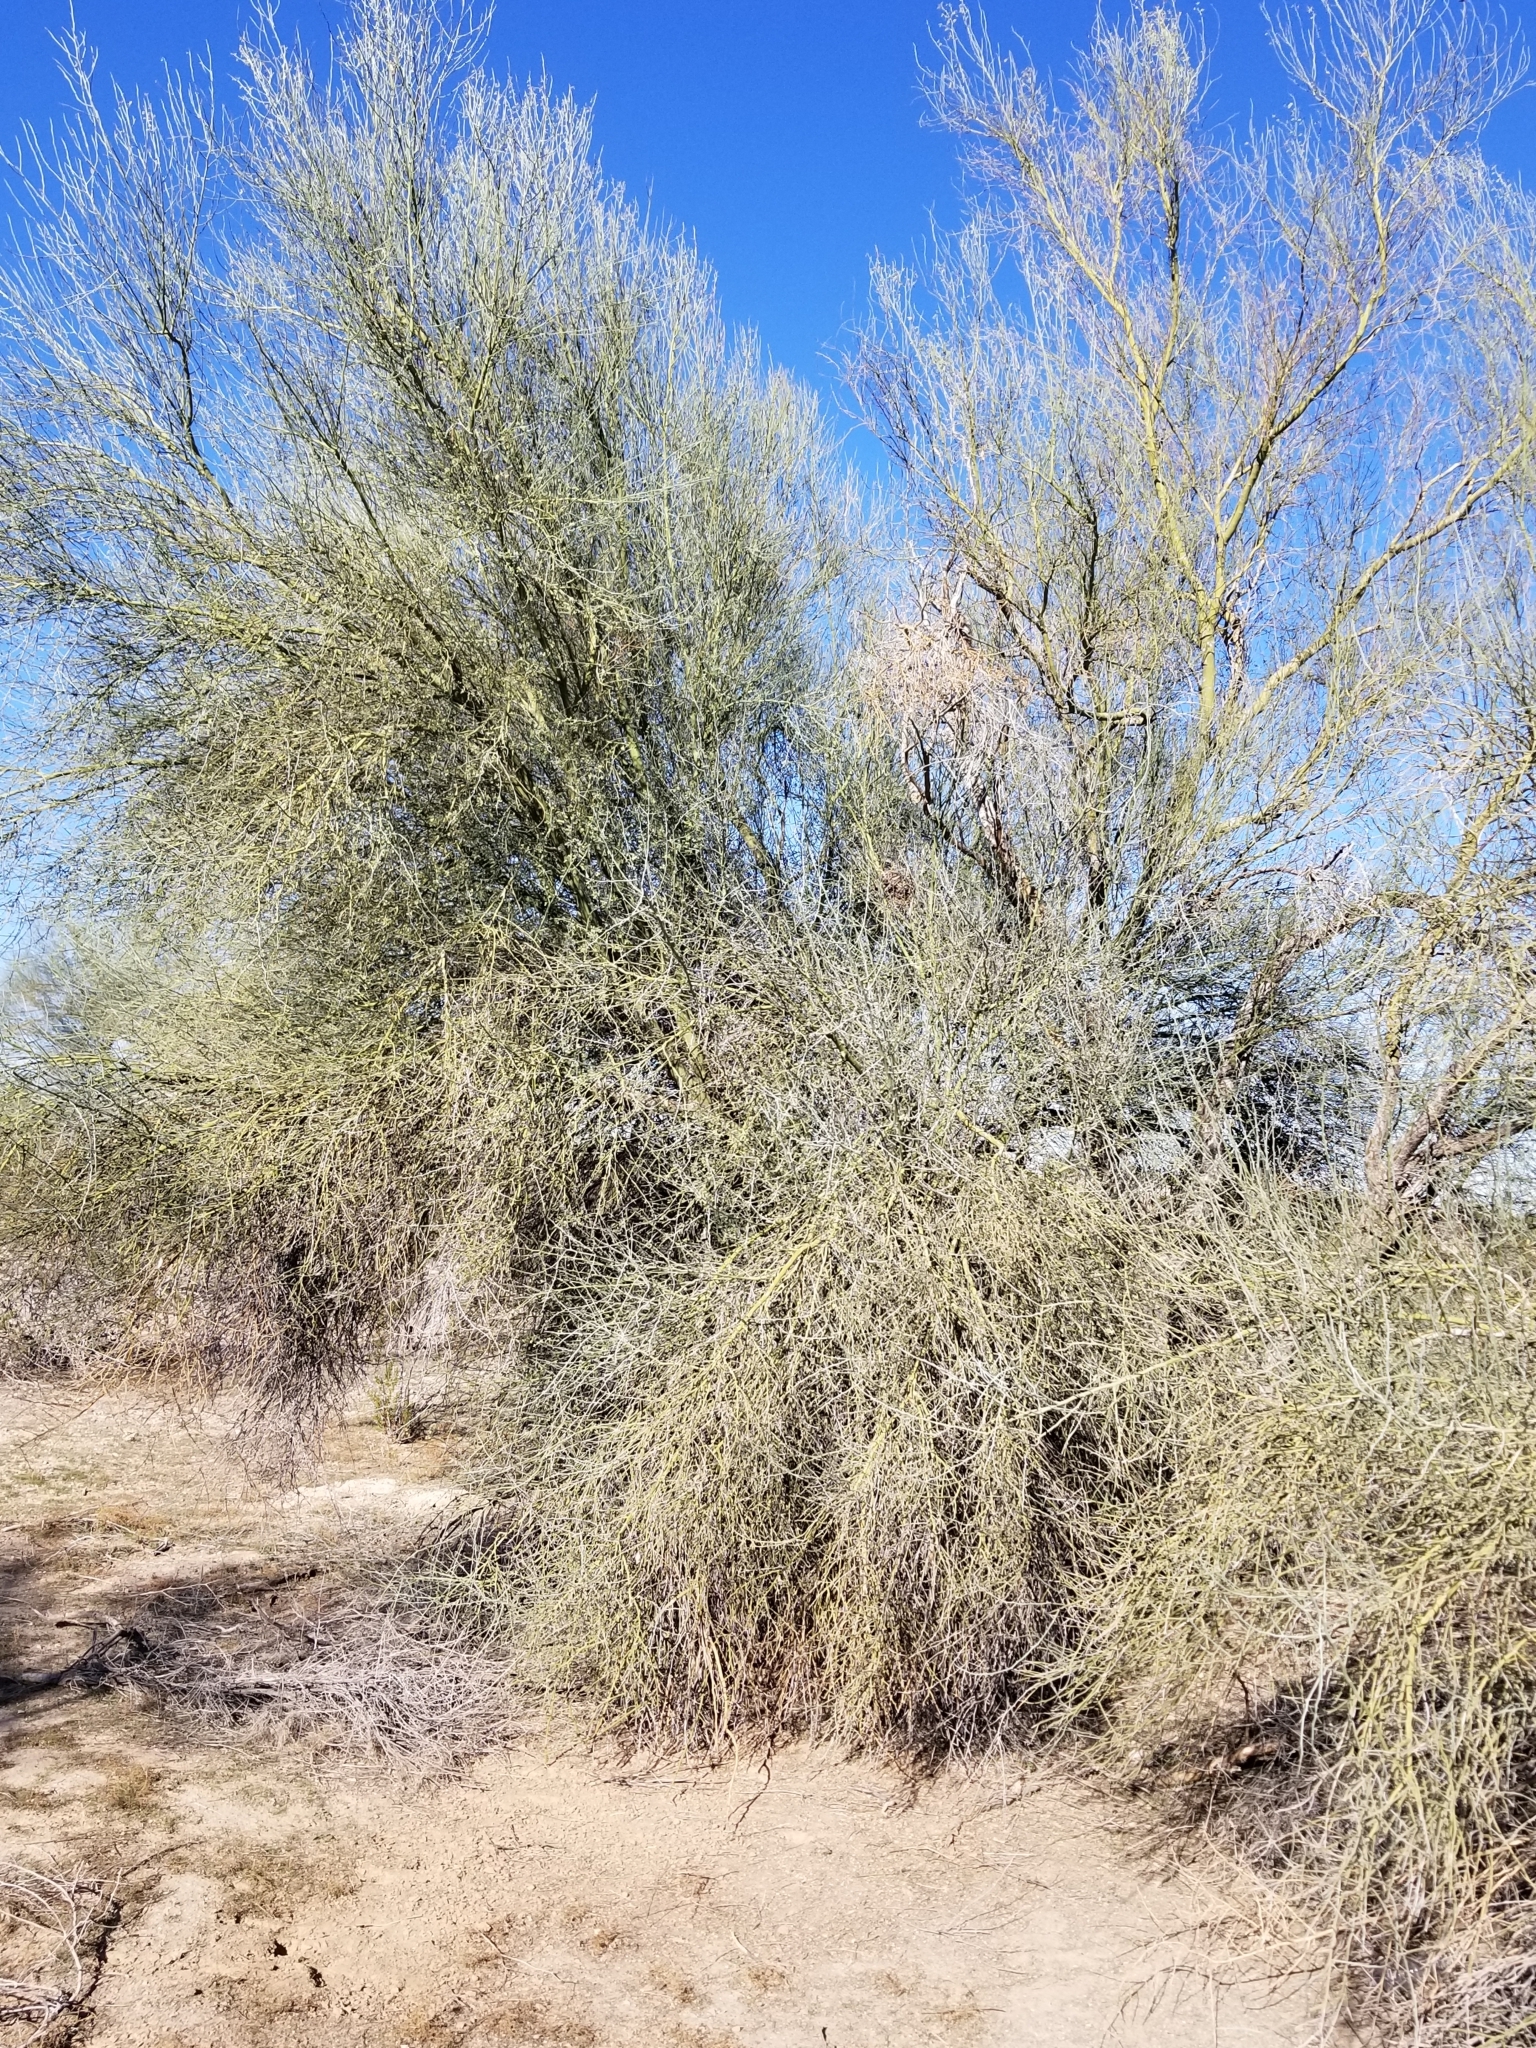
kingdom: Plantae
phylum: Tracheophyta
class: Magnoliopsida
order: Fabales
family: Fabaceae
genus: Parkinsonia
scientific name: Parkinsonia florida
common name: Blue paloverde
